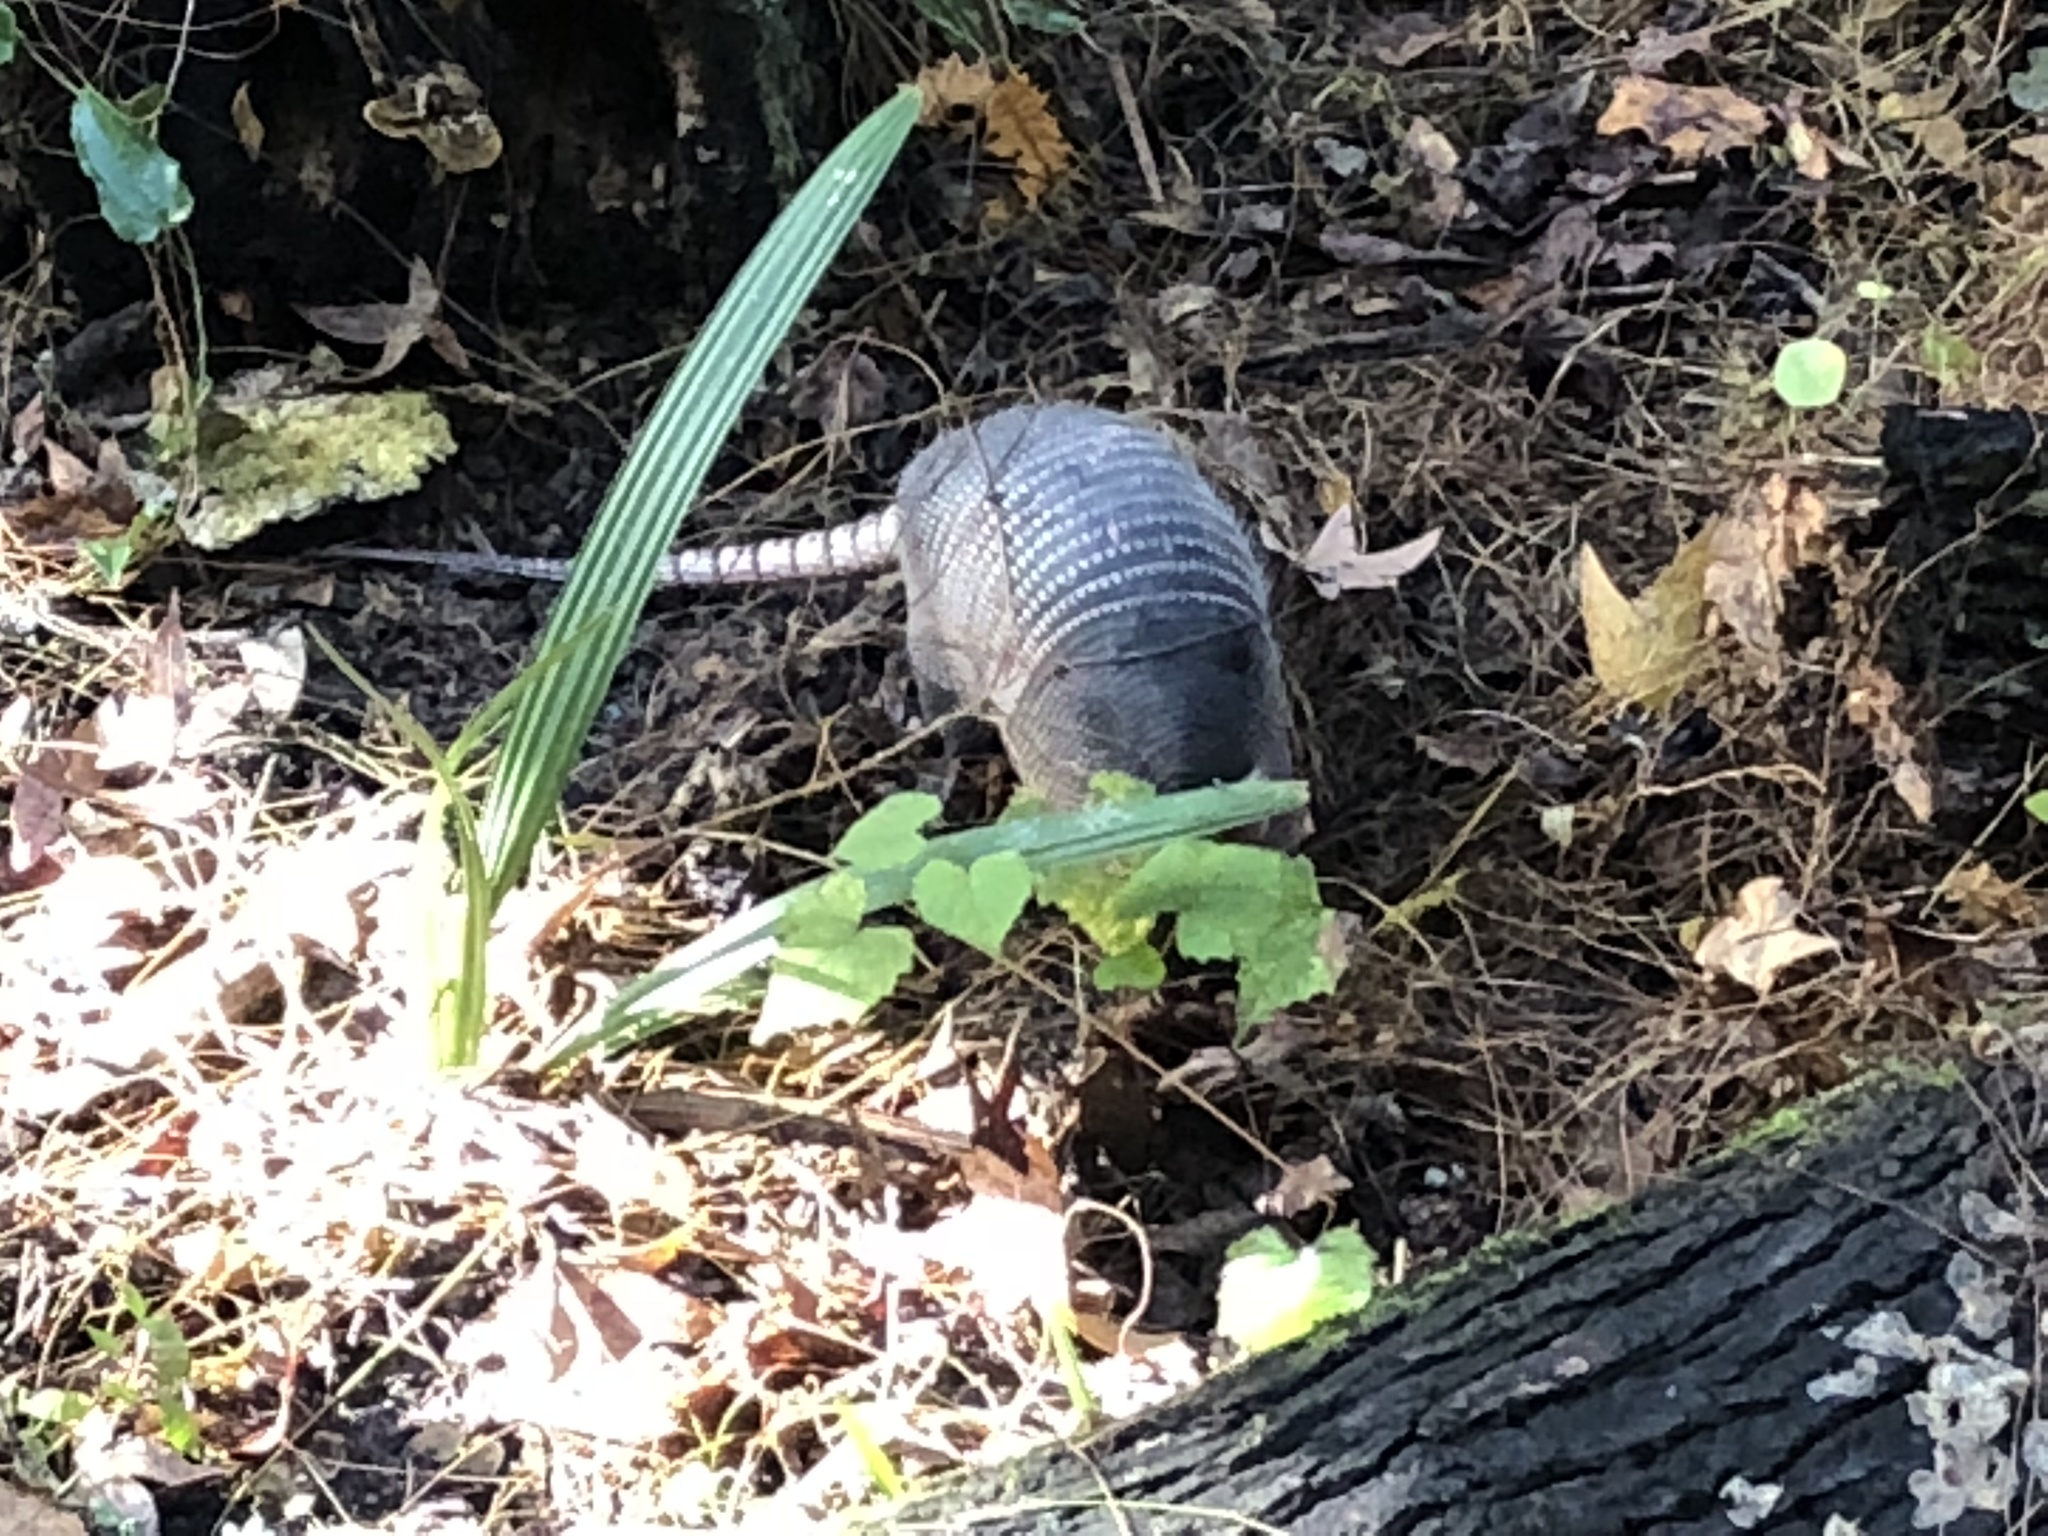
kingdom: Animalia
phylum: Chordata
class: Mammalia
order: Cingulata
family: Dasypodidae
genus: Dasypus
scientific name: Dasypus novemcinctus
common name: Nine-banded armadillo
